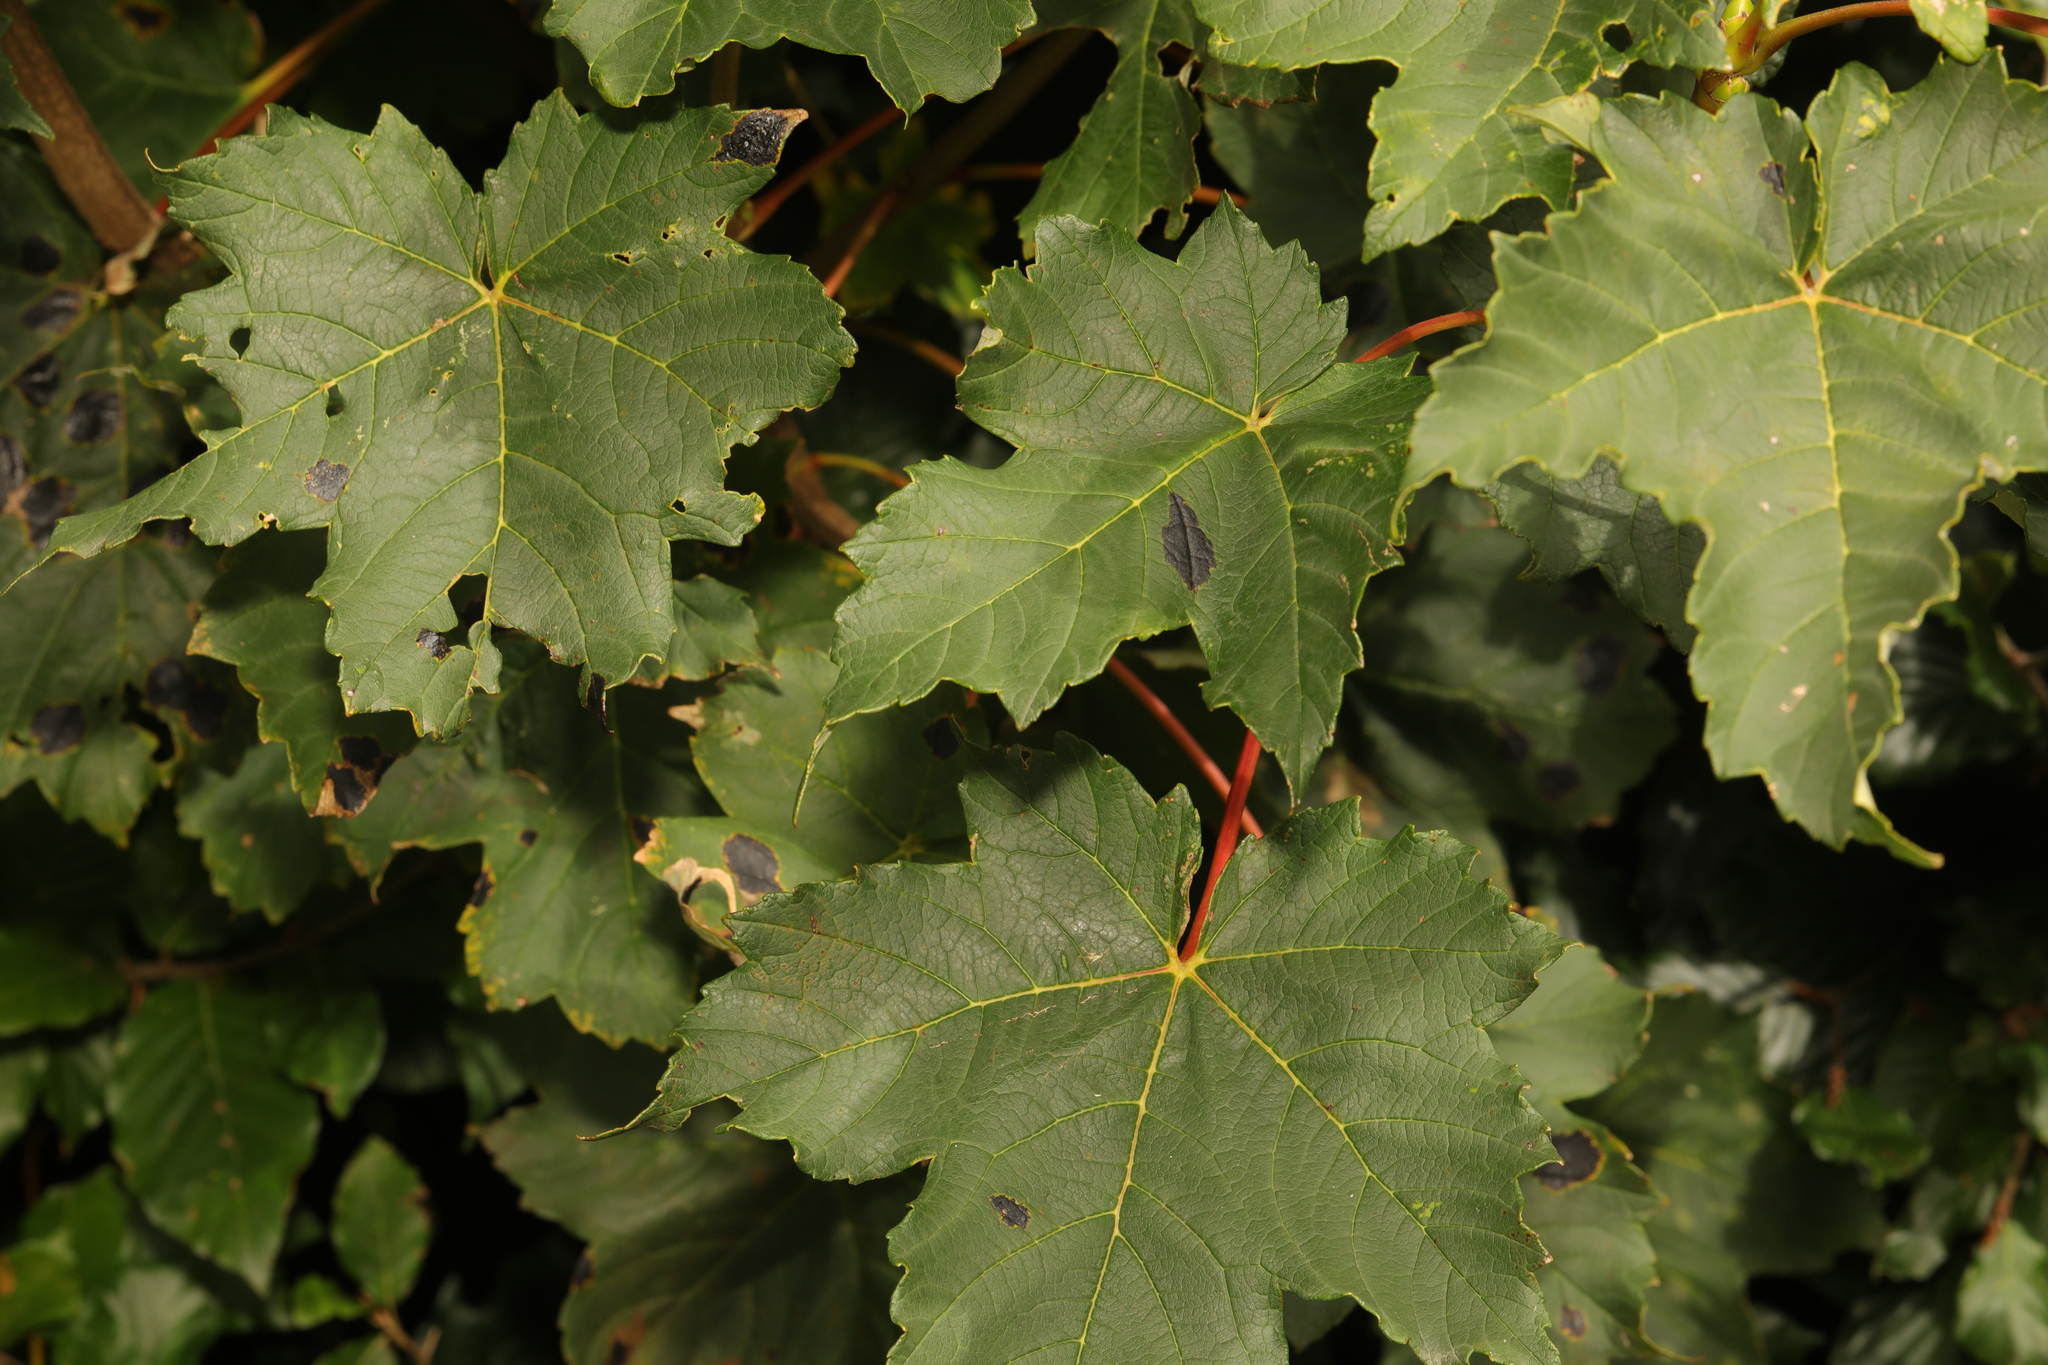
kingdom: Plantae
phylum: Tracheophyta
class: Magnoliopsida
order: Sapindales
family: Sapindaceae
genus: Acer
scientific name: Acer pseudoplatanus
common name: Sycamore
